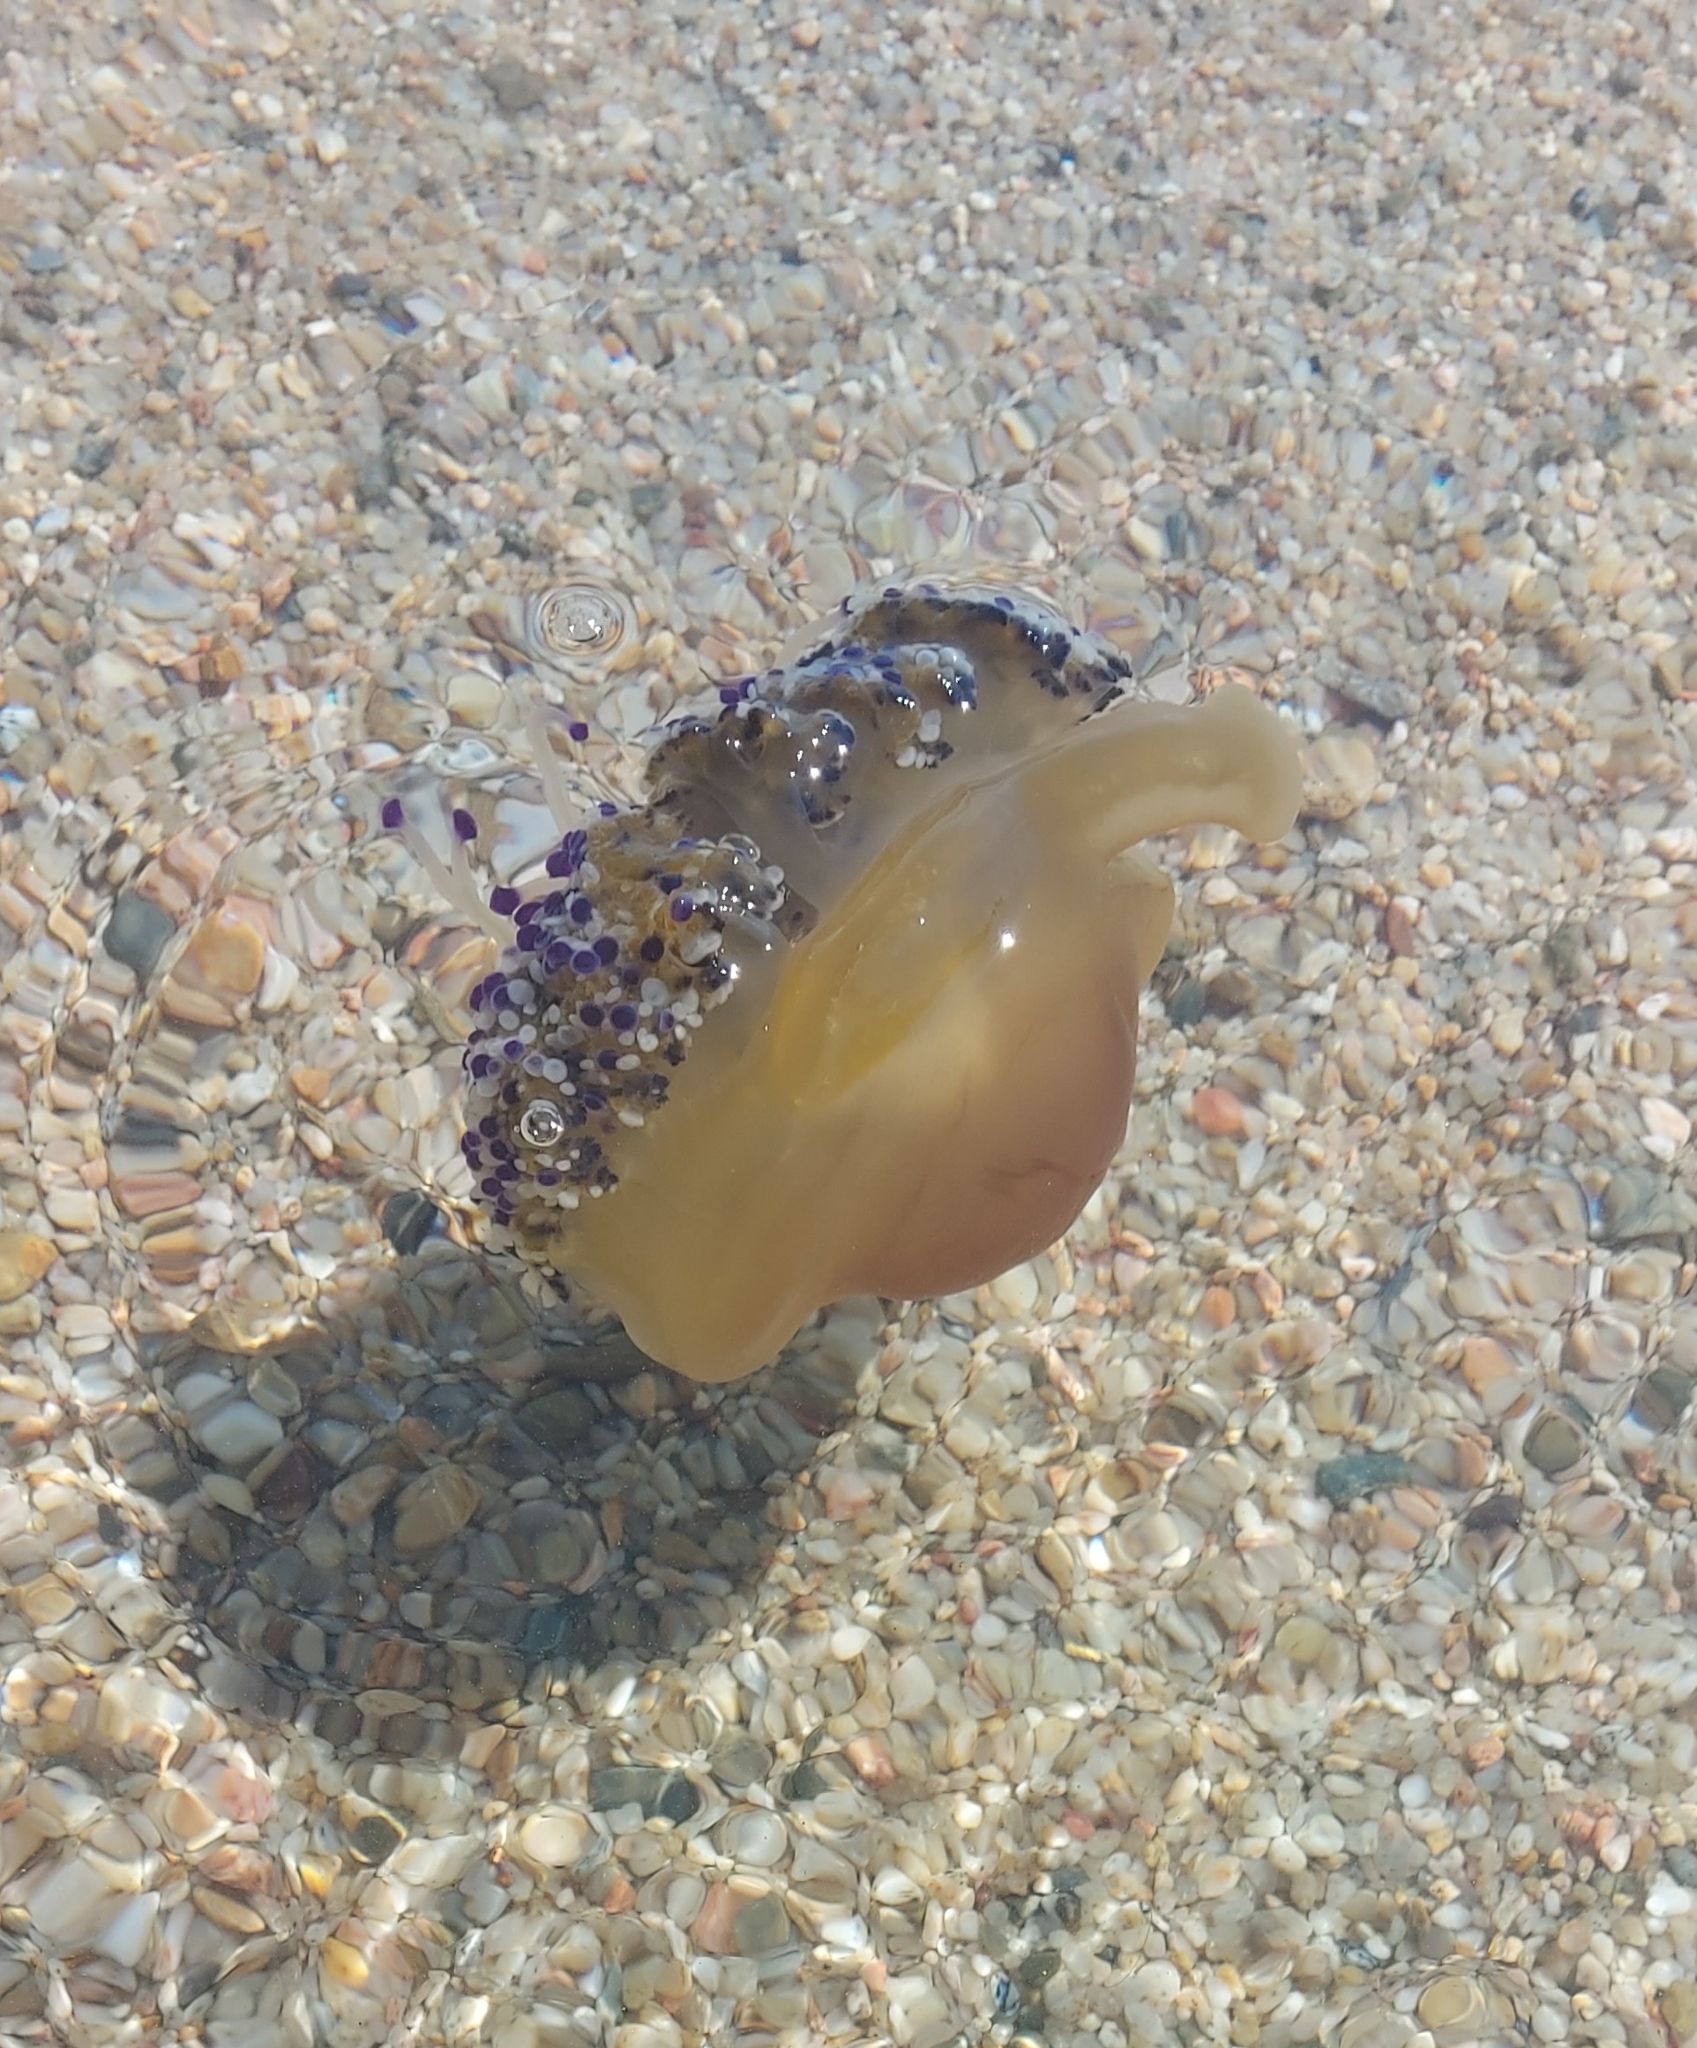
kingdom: Animalia
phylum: Cnidaria
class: Scyphozoa
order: Rhizostomeae
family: Cepheidae
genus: Cotylorhiza
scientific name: Cotylorhiza tuberculata
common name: Mediterranean jelly
